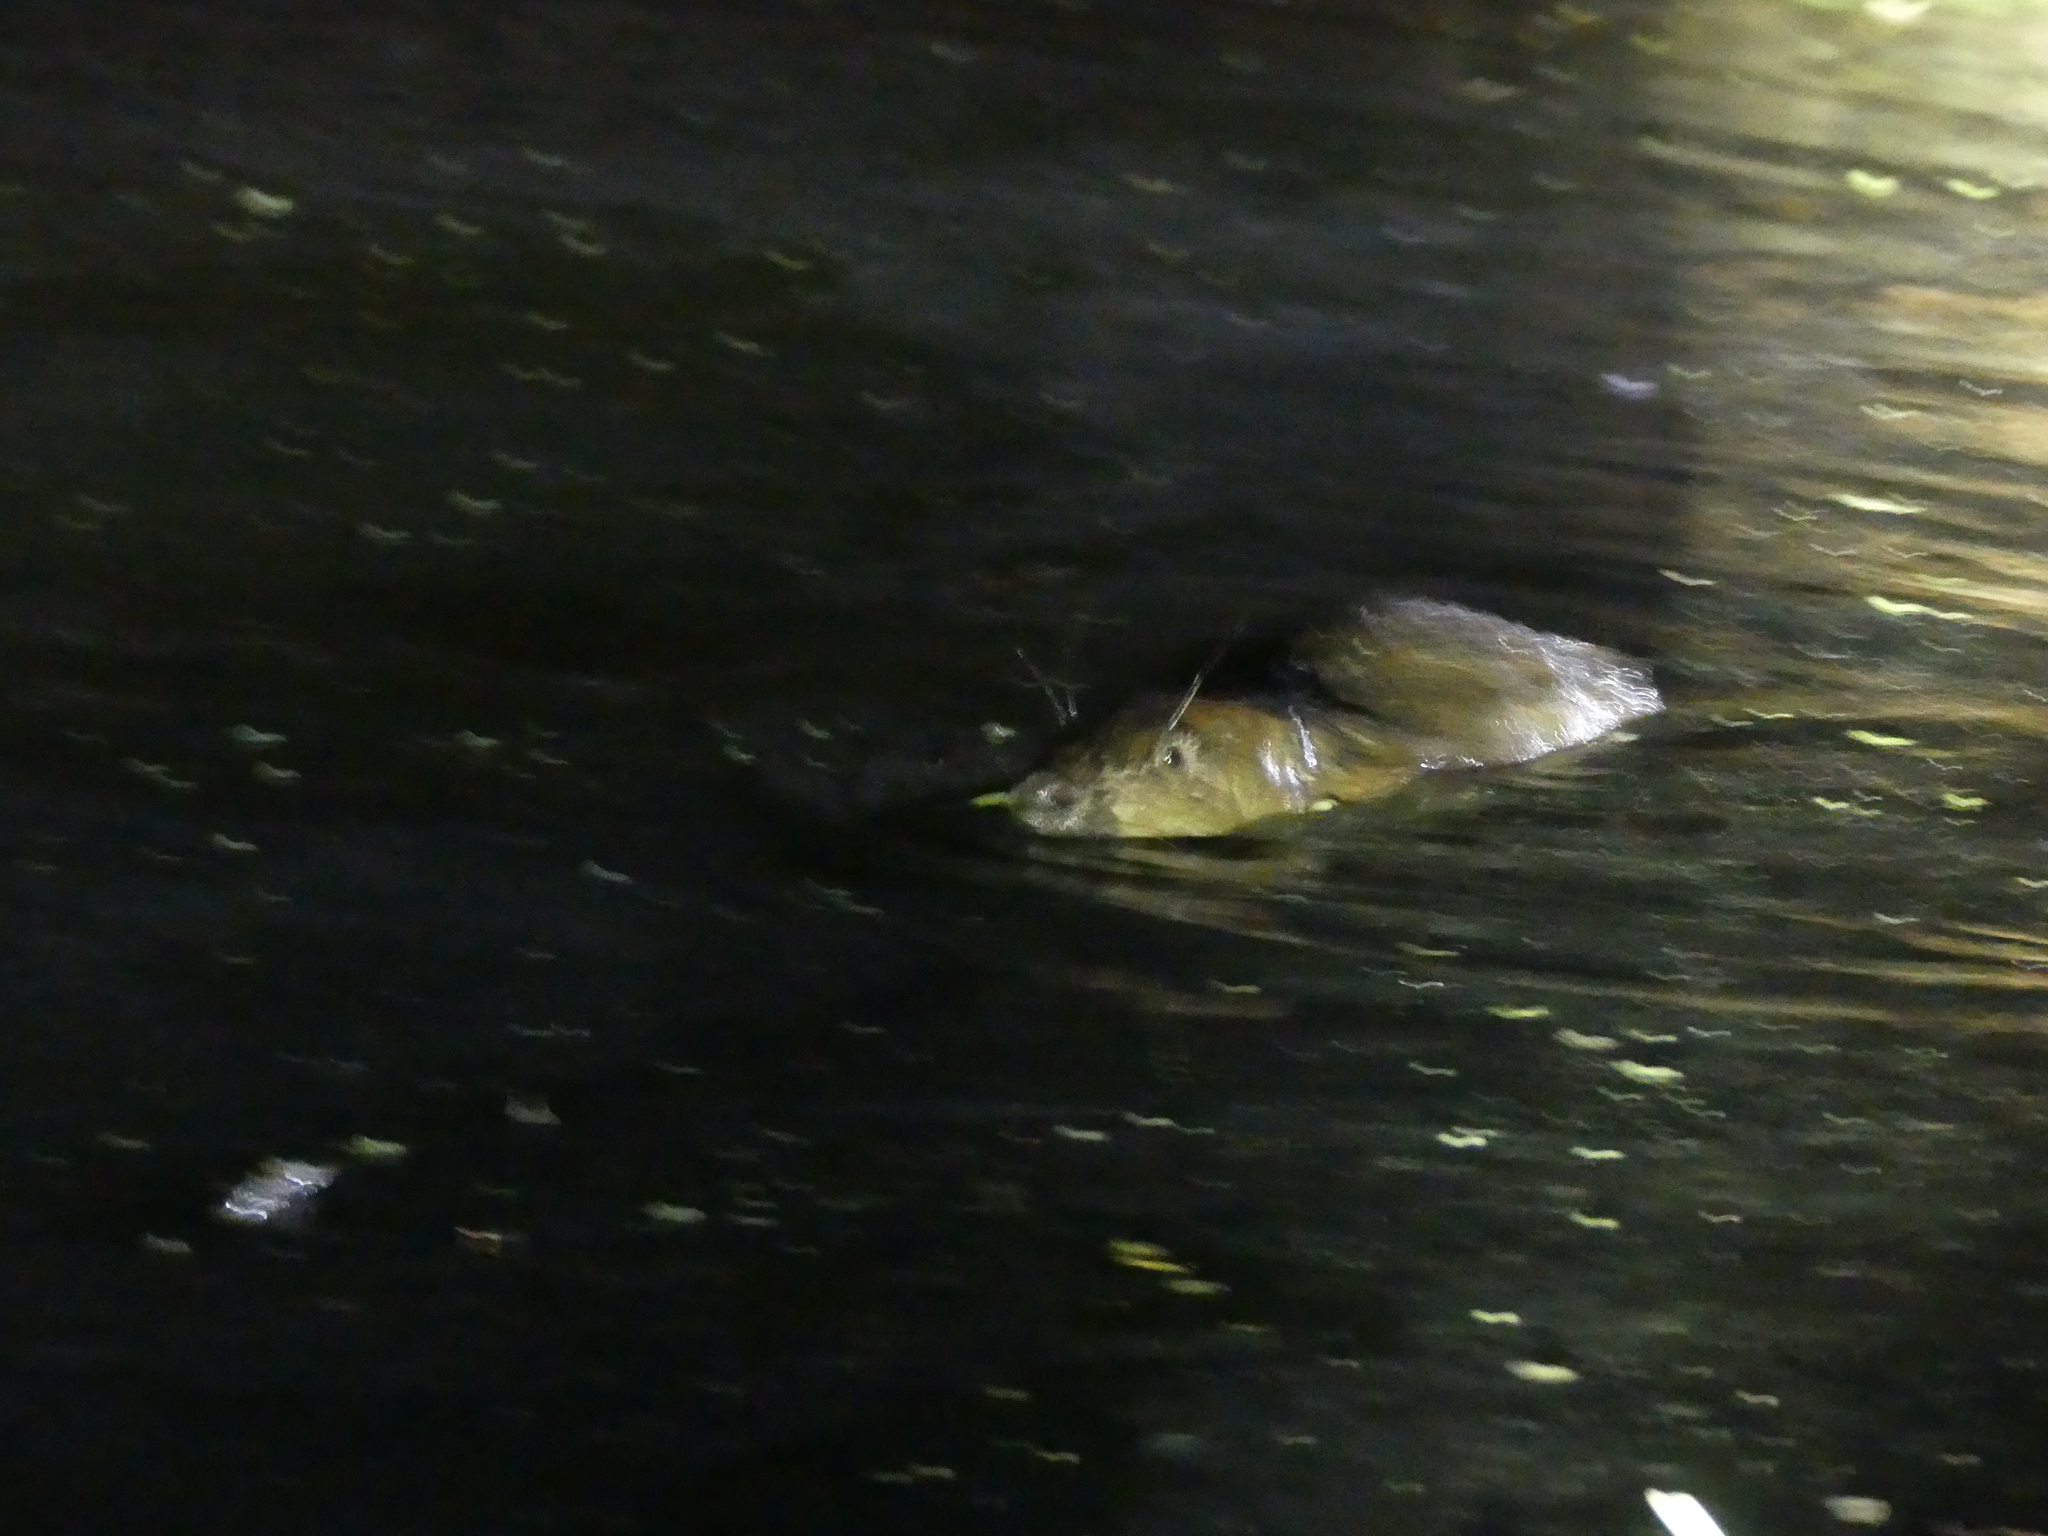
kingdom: Animalia
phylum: Chordata
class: Mammalia
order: Rodentia
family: Castoridae
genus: Castor
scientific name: Castor fiber
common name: Eurasian beaver
